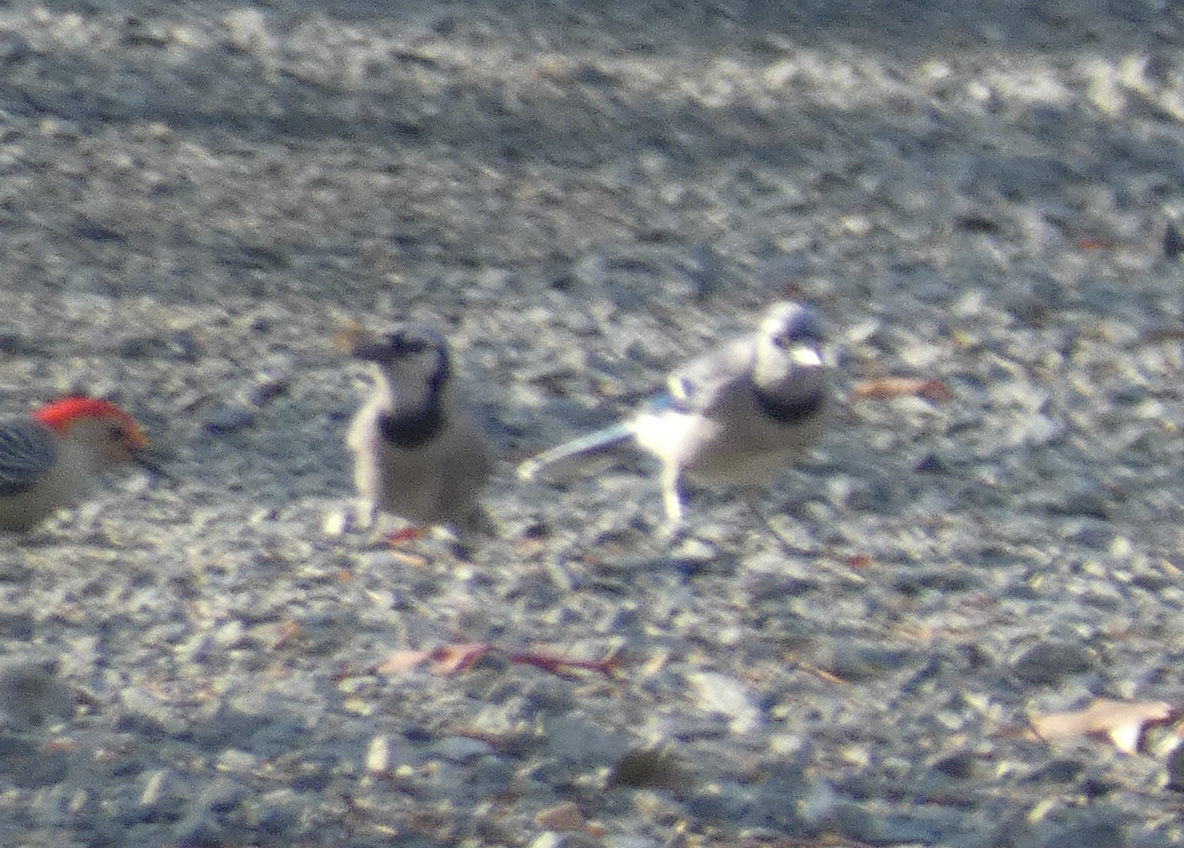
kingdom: Animalia
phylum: Chordata
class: Aves
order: Passeriformes
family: Corvidae
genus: Cyanocitta
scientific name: Cyanocitta cristata
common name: Blue jay
